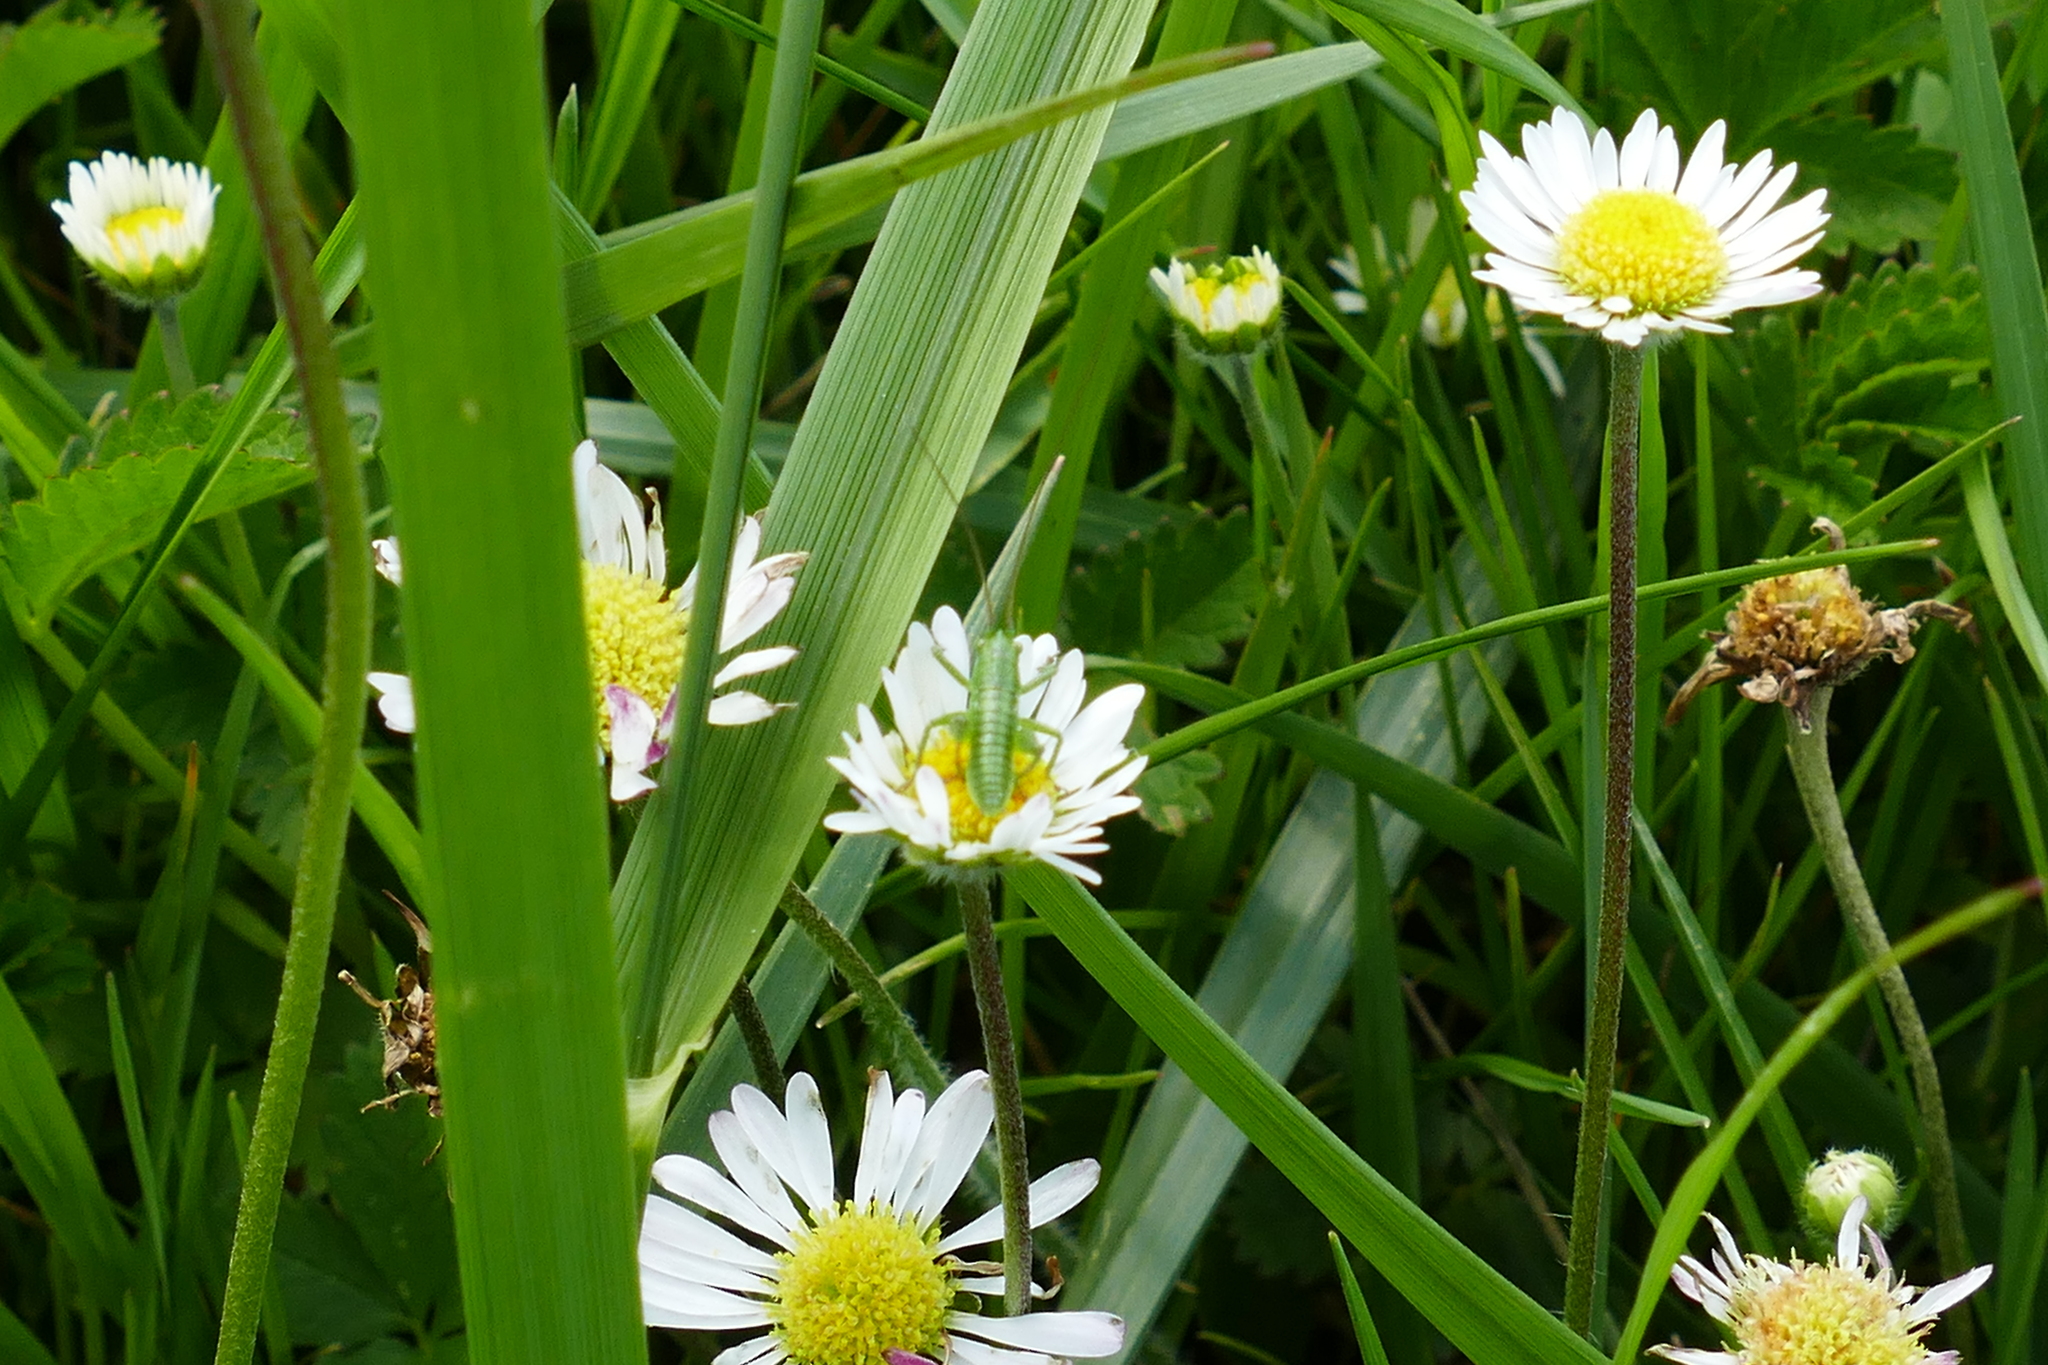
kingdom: Animalia
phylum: Arthropoda
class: Insecta
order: Orthoptera
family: Tettigoniidae
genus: Tettigonia
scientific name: Tettigonia viridissima
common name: Great green bush-cricket
